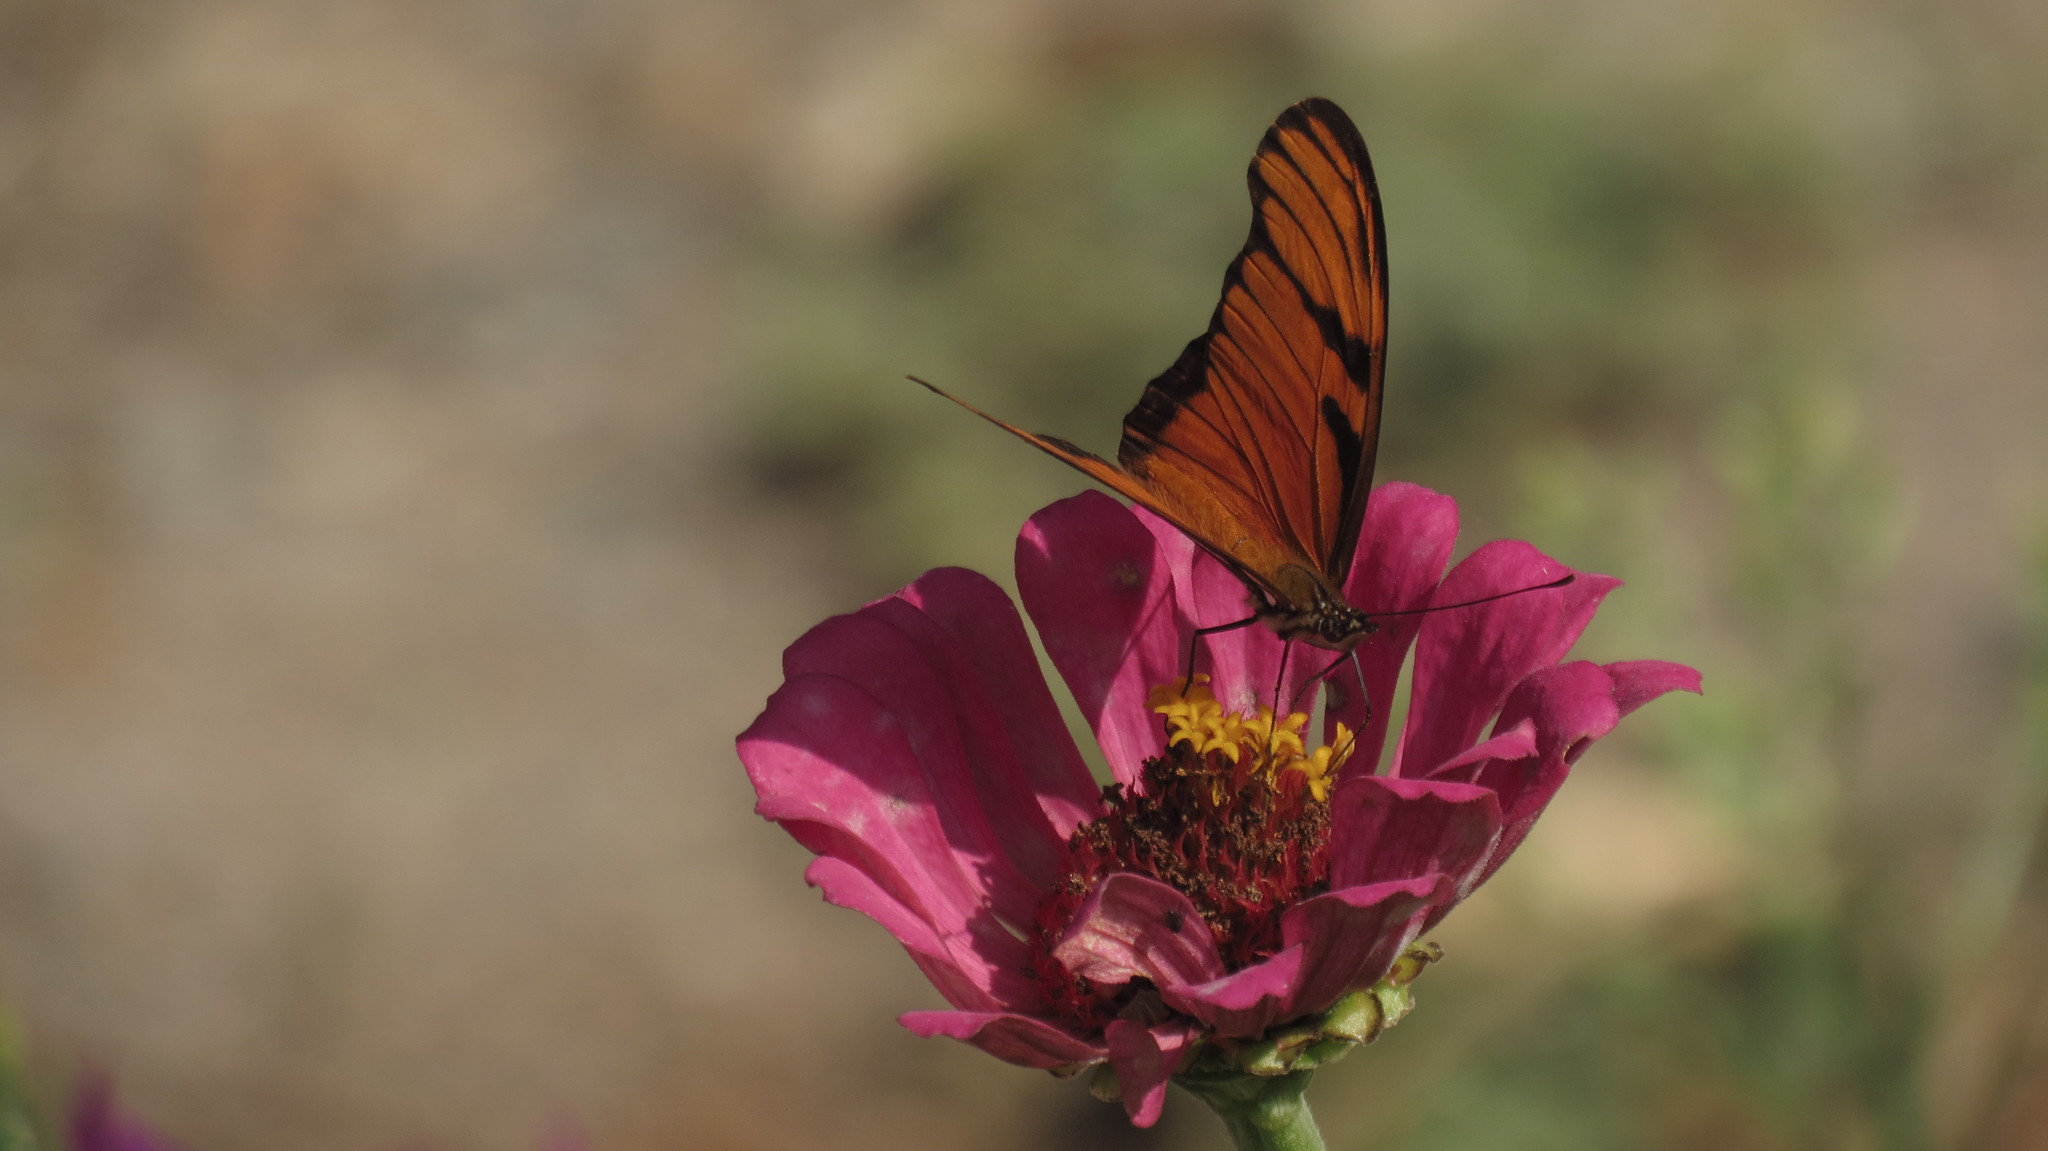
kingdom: Animalia
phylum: Arthropoda
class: Insecta
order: Lepidoptera
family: Nymphalidae
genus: Dione
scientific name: Dione juno
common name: Juno silverspot
